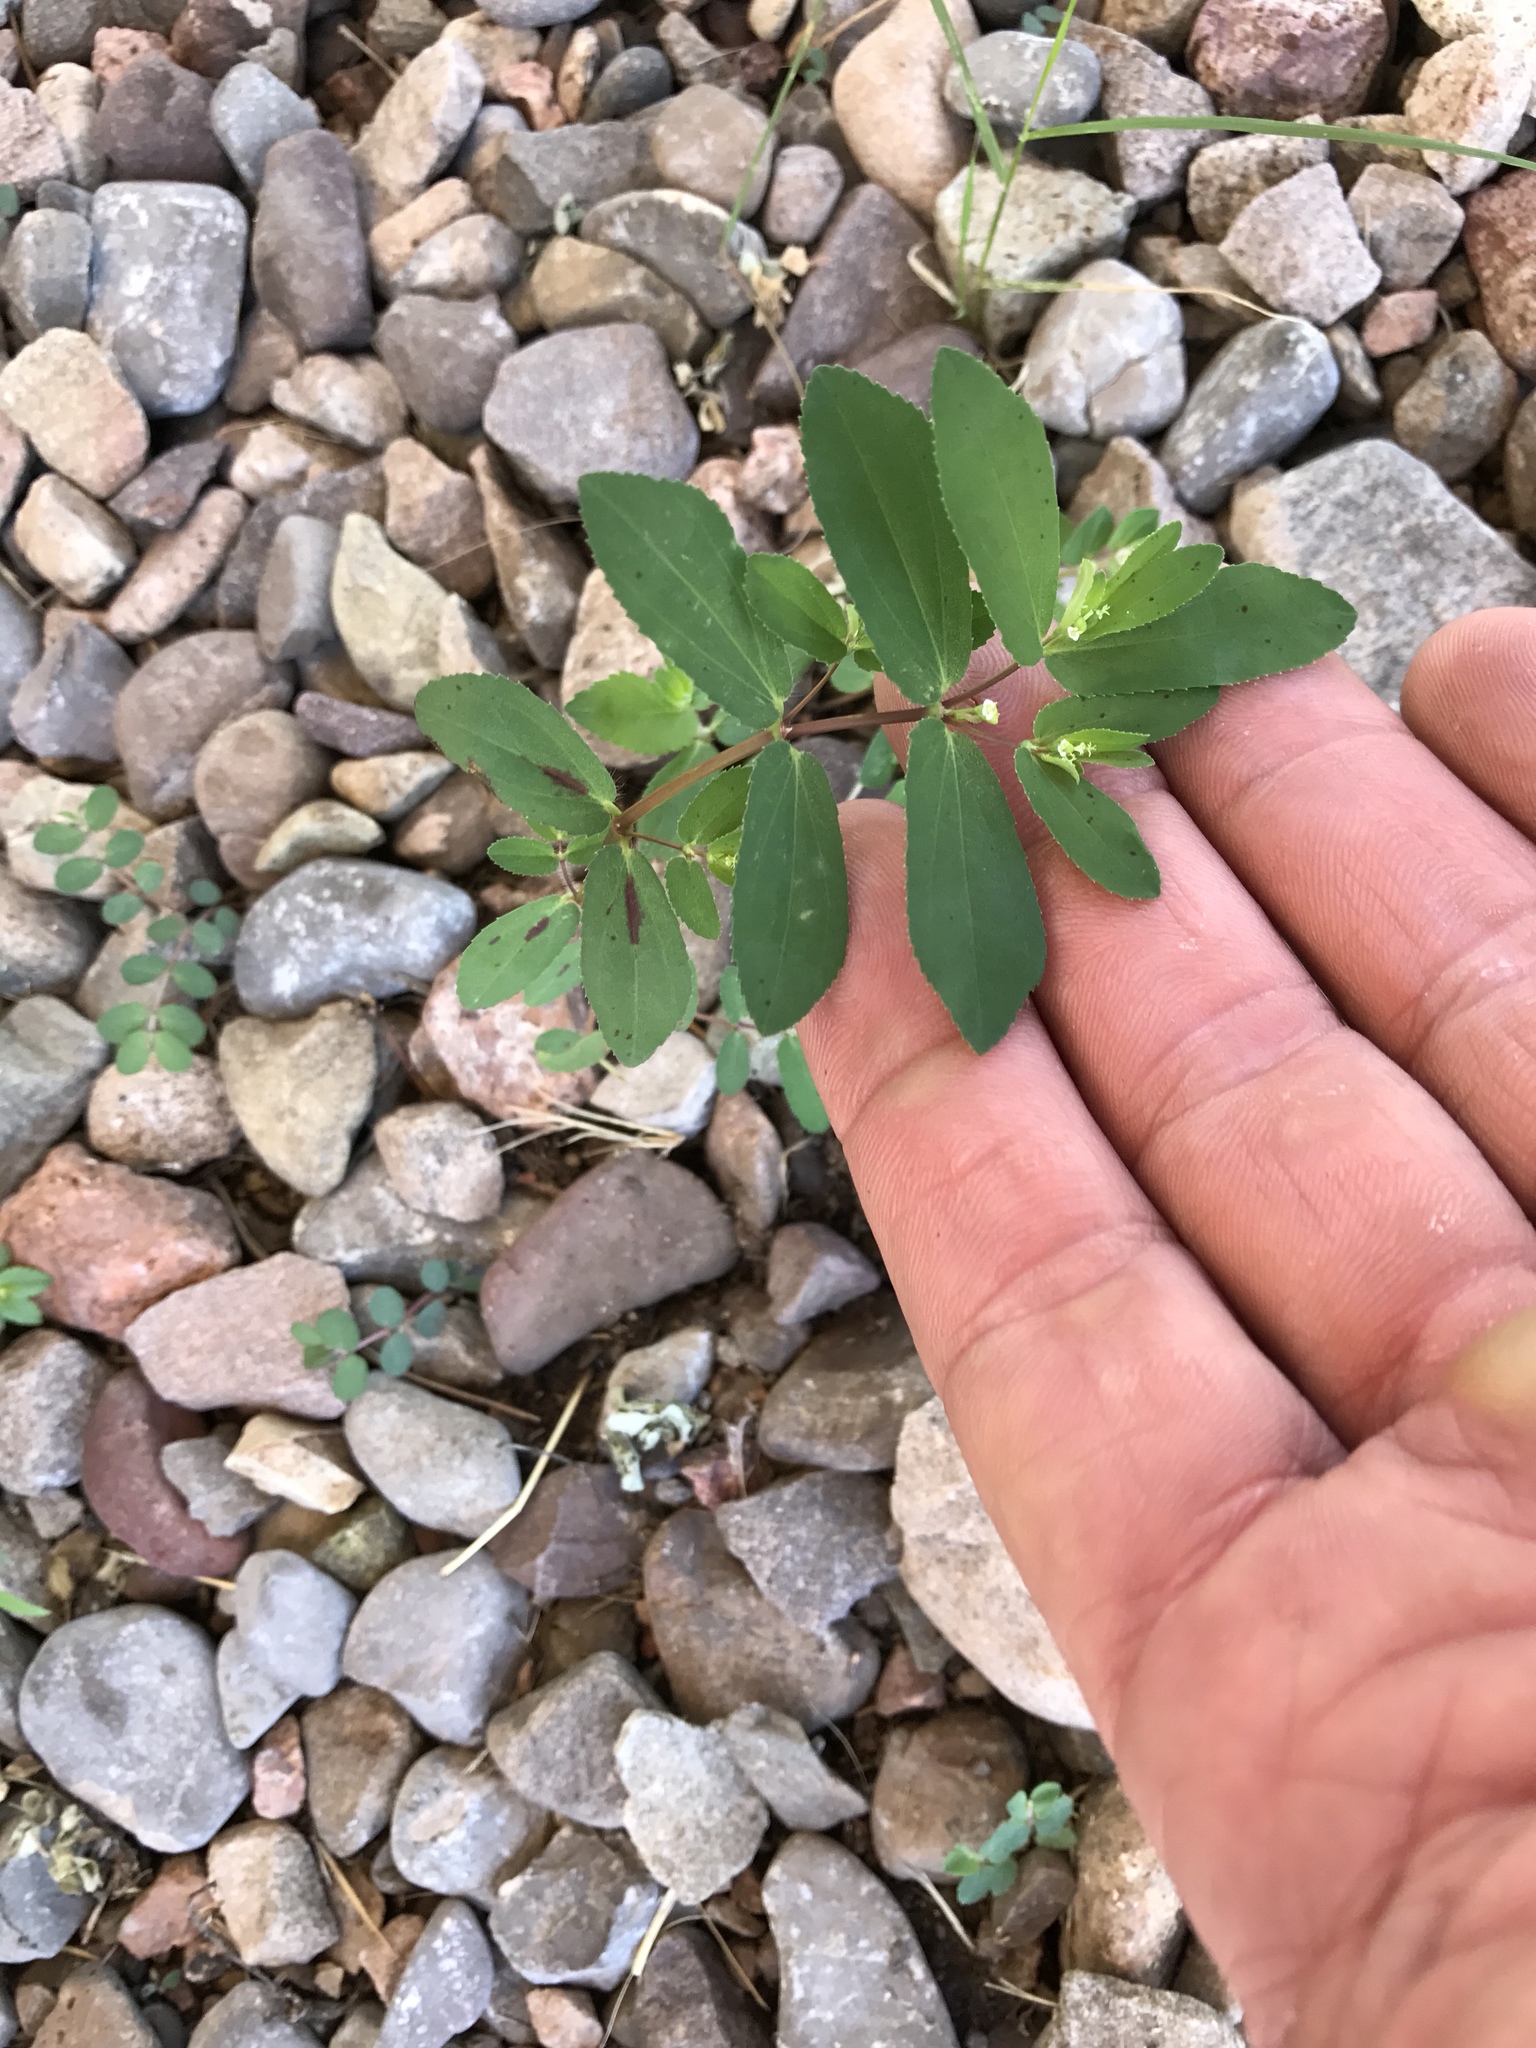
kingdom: Plantae
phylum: Tracheophyta
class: Magnoliopsida
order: Malpighiales
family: Euphorbiaceae
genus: Euphorbia
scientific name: Euphorbia hyssopifolia
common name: Hyssopleaf sandmat
